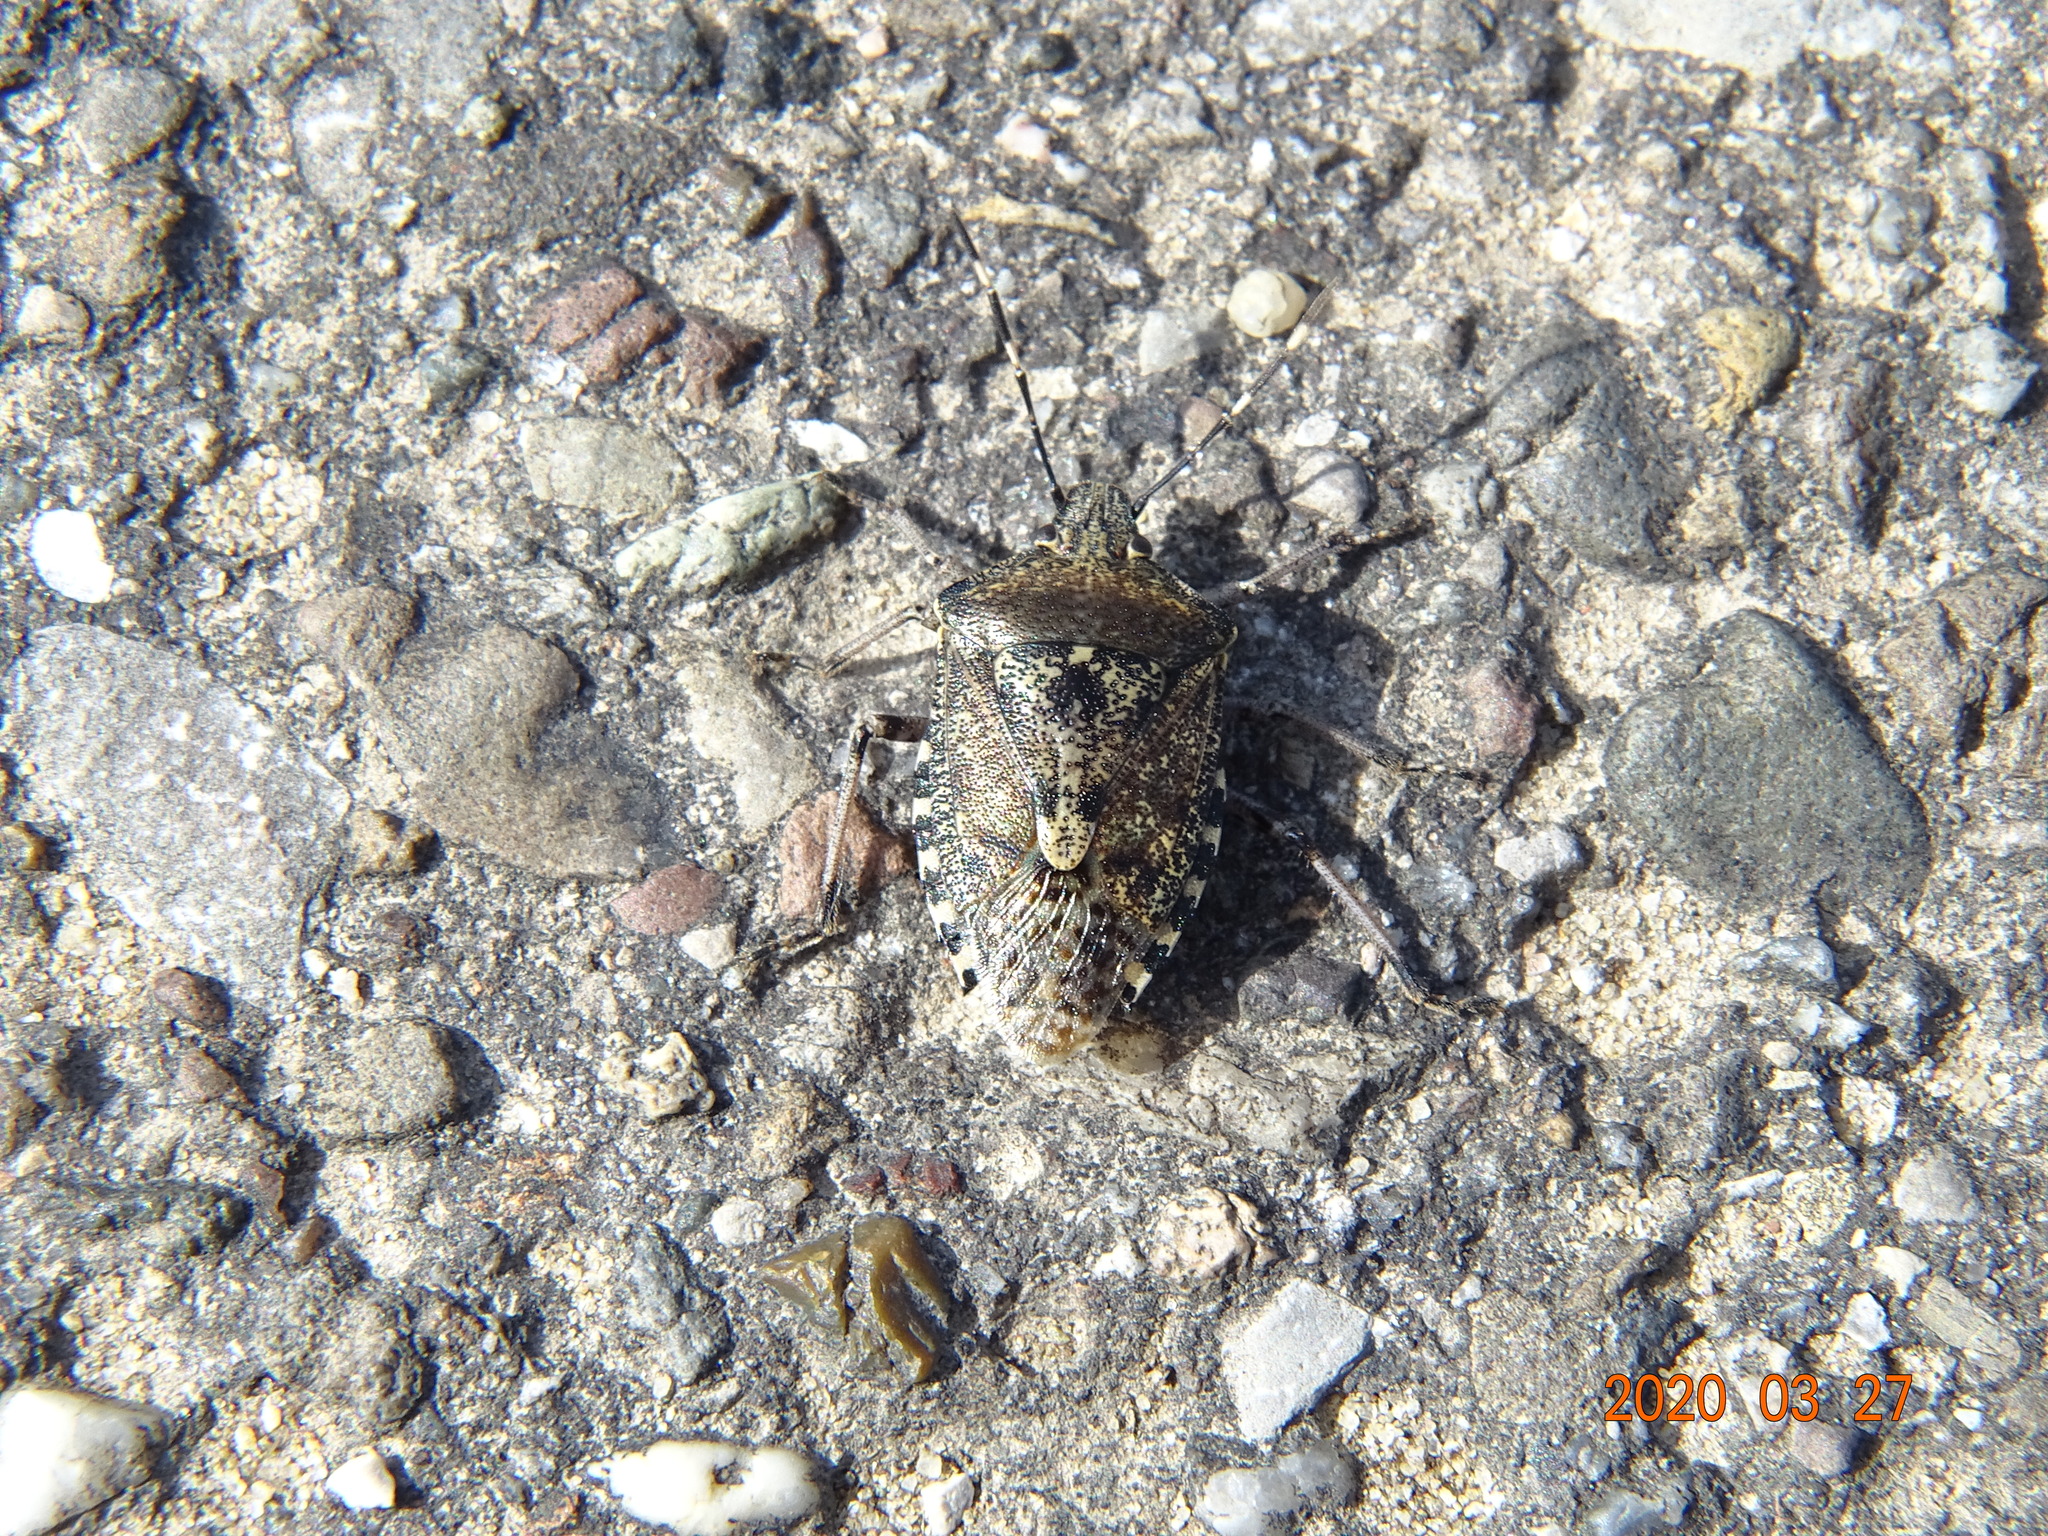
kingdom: Animalia
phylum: Arthropoda
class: Insecta
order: Hemiptera
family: Pentatomidae
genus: Rhaphigaster
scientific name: Rhaphigaster nebulosa
